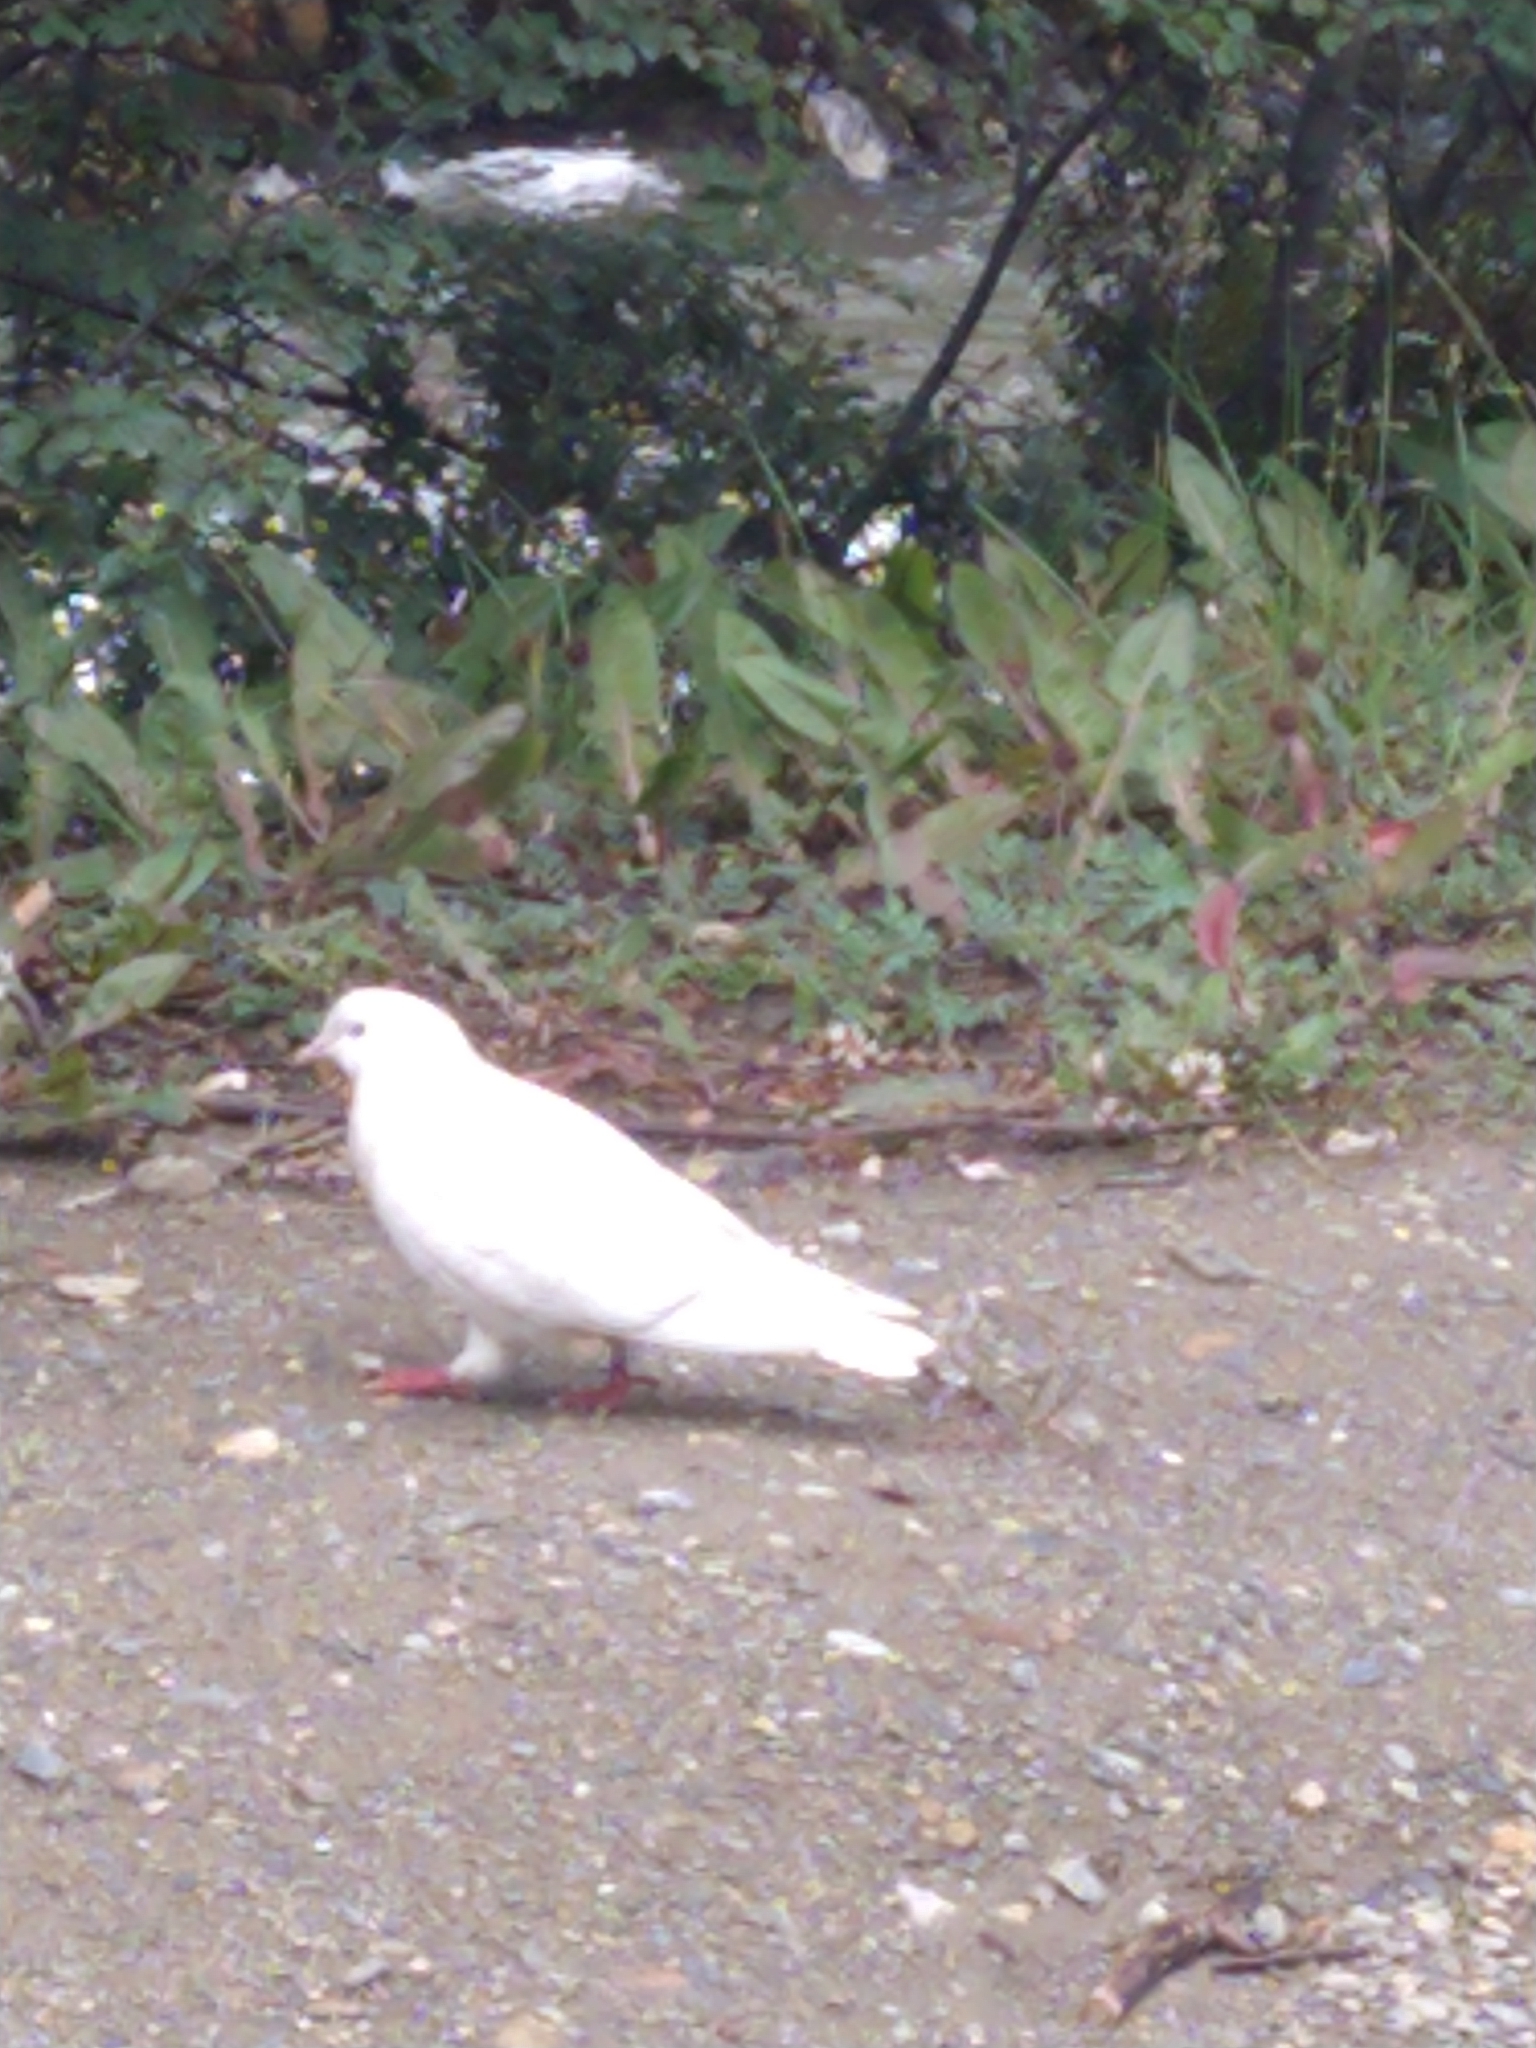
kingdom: Animalia
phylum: Chordata
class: Aves
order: Columbiformes
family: Columbidae
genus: Columba
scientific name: Columba livia
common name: Rock pigeon
